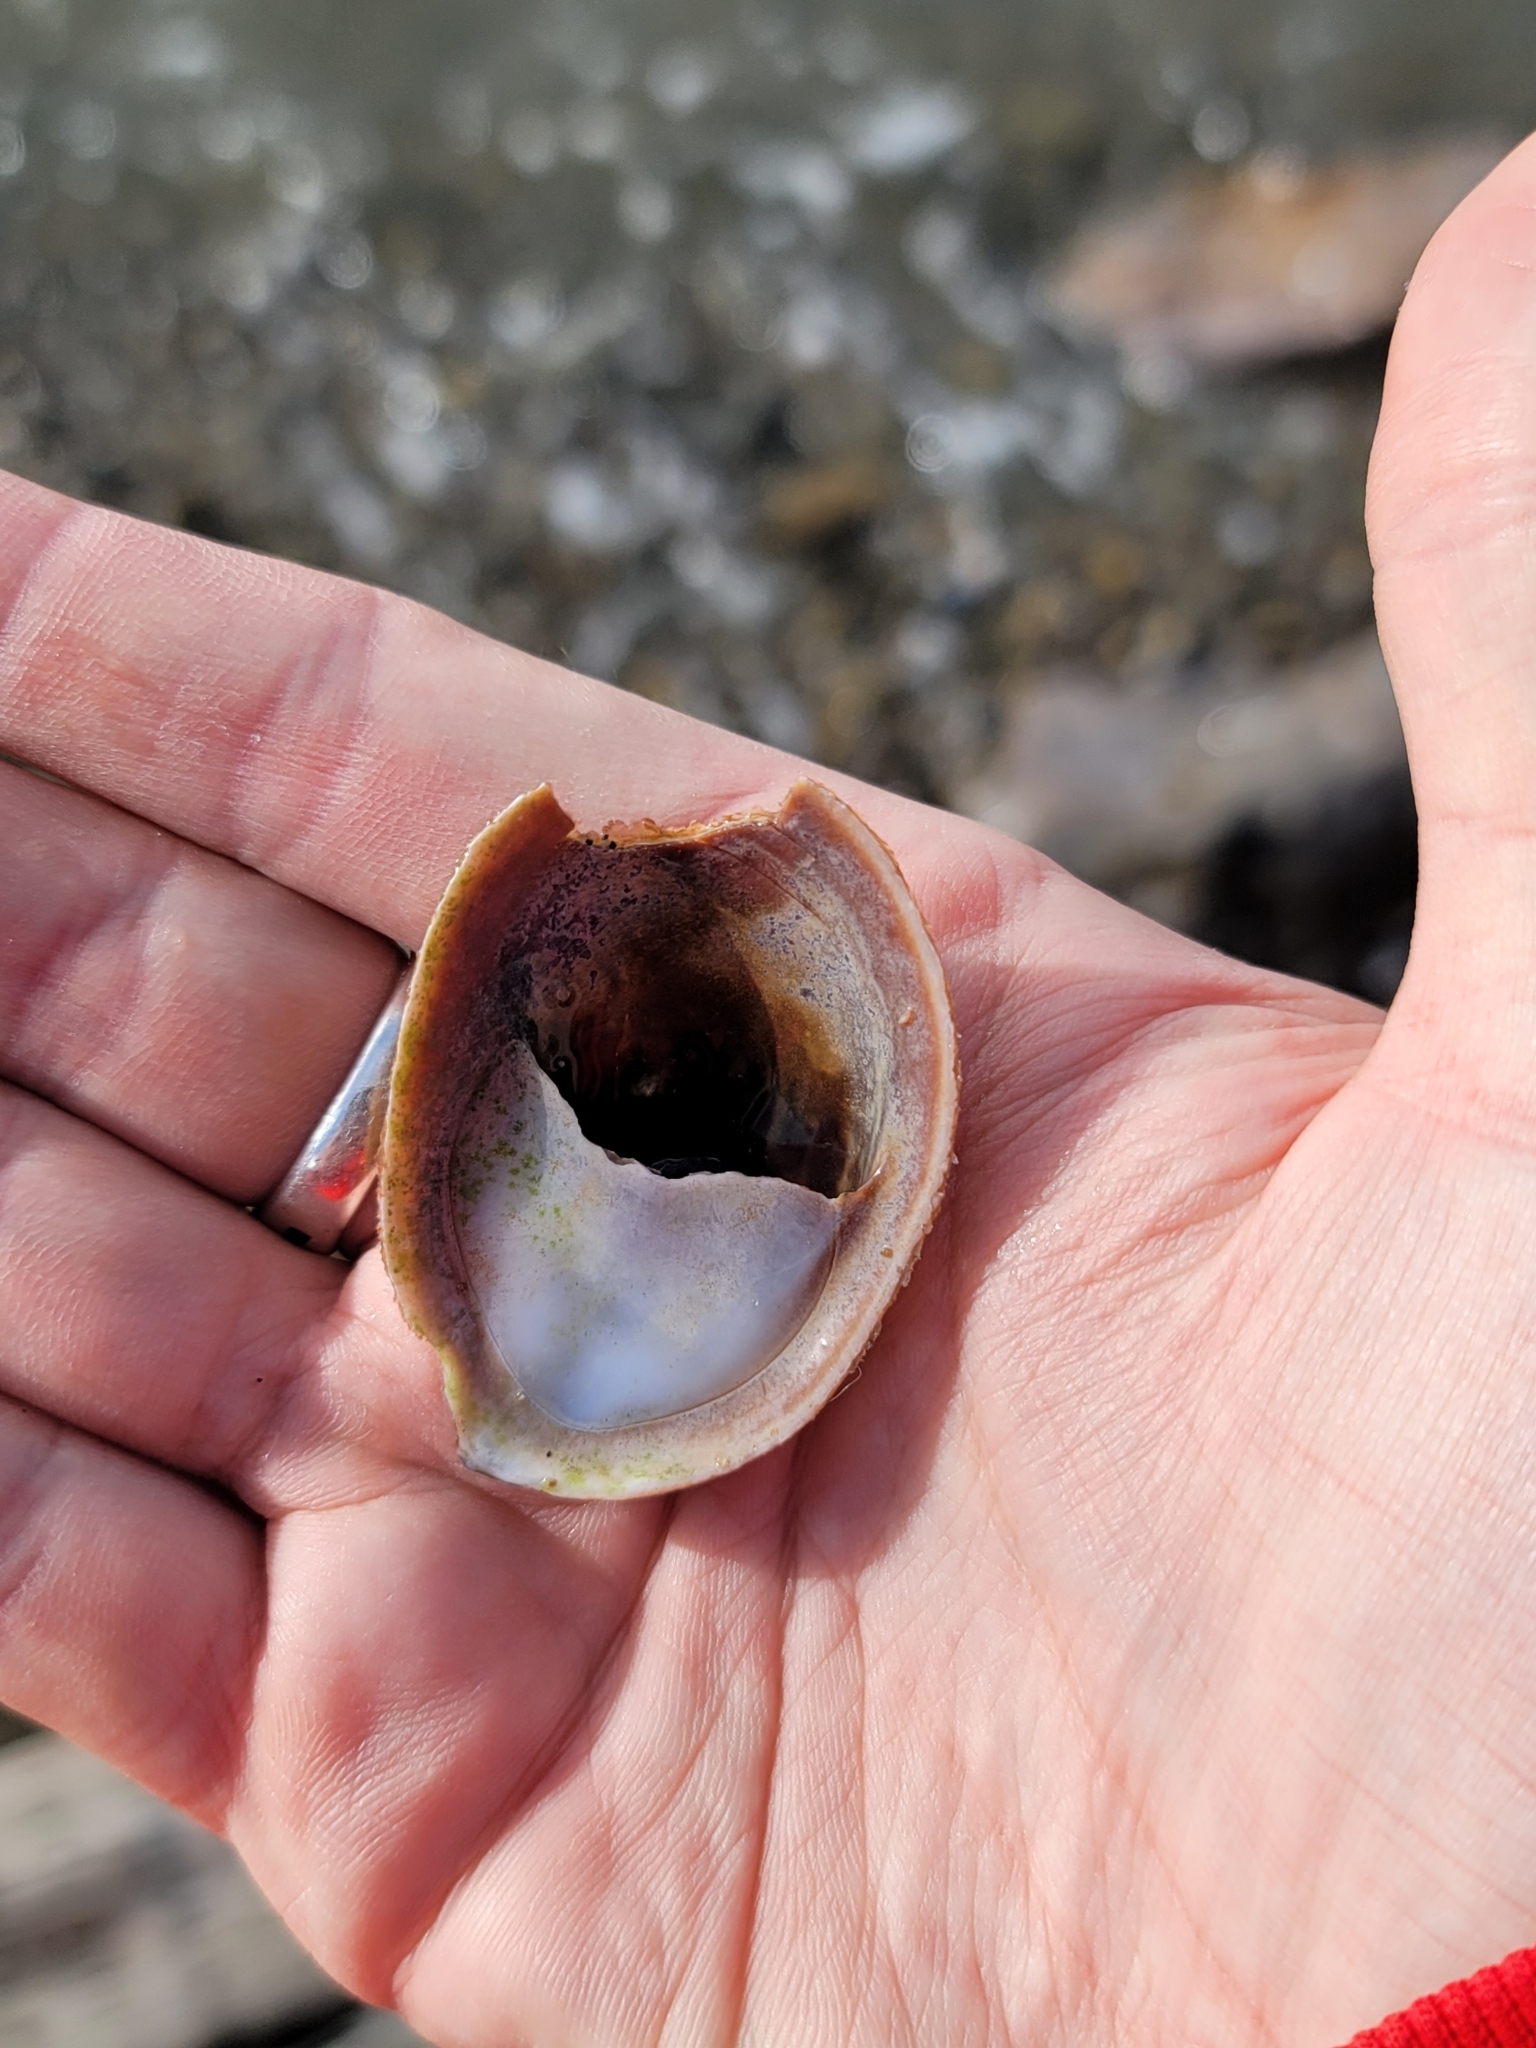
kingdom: Animalia
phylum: Mollusca
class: Gastropoda
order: Littorinimorpha
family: Calyptraeidae
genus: Crepidula
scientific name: Crepidula onyx
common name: Onyx slippersnail
